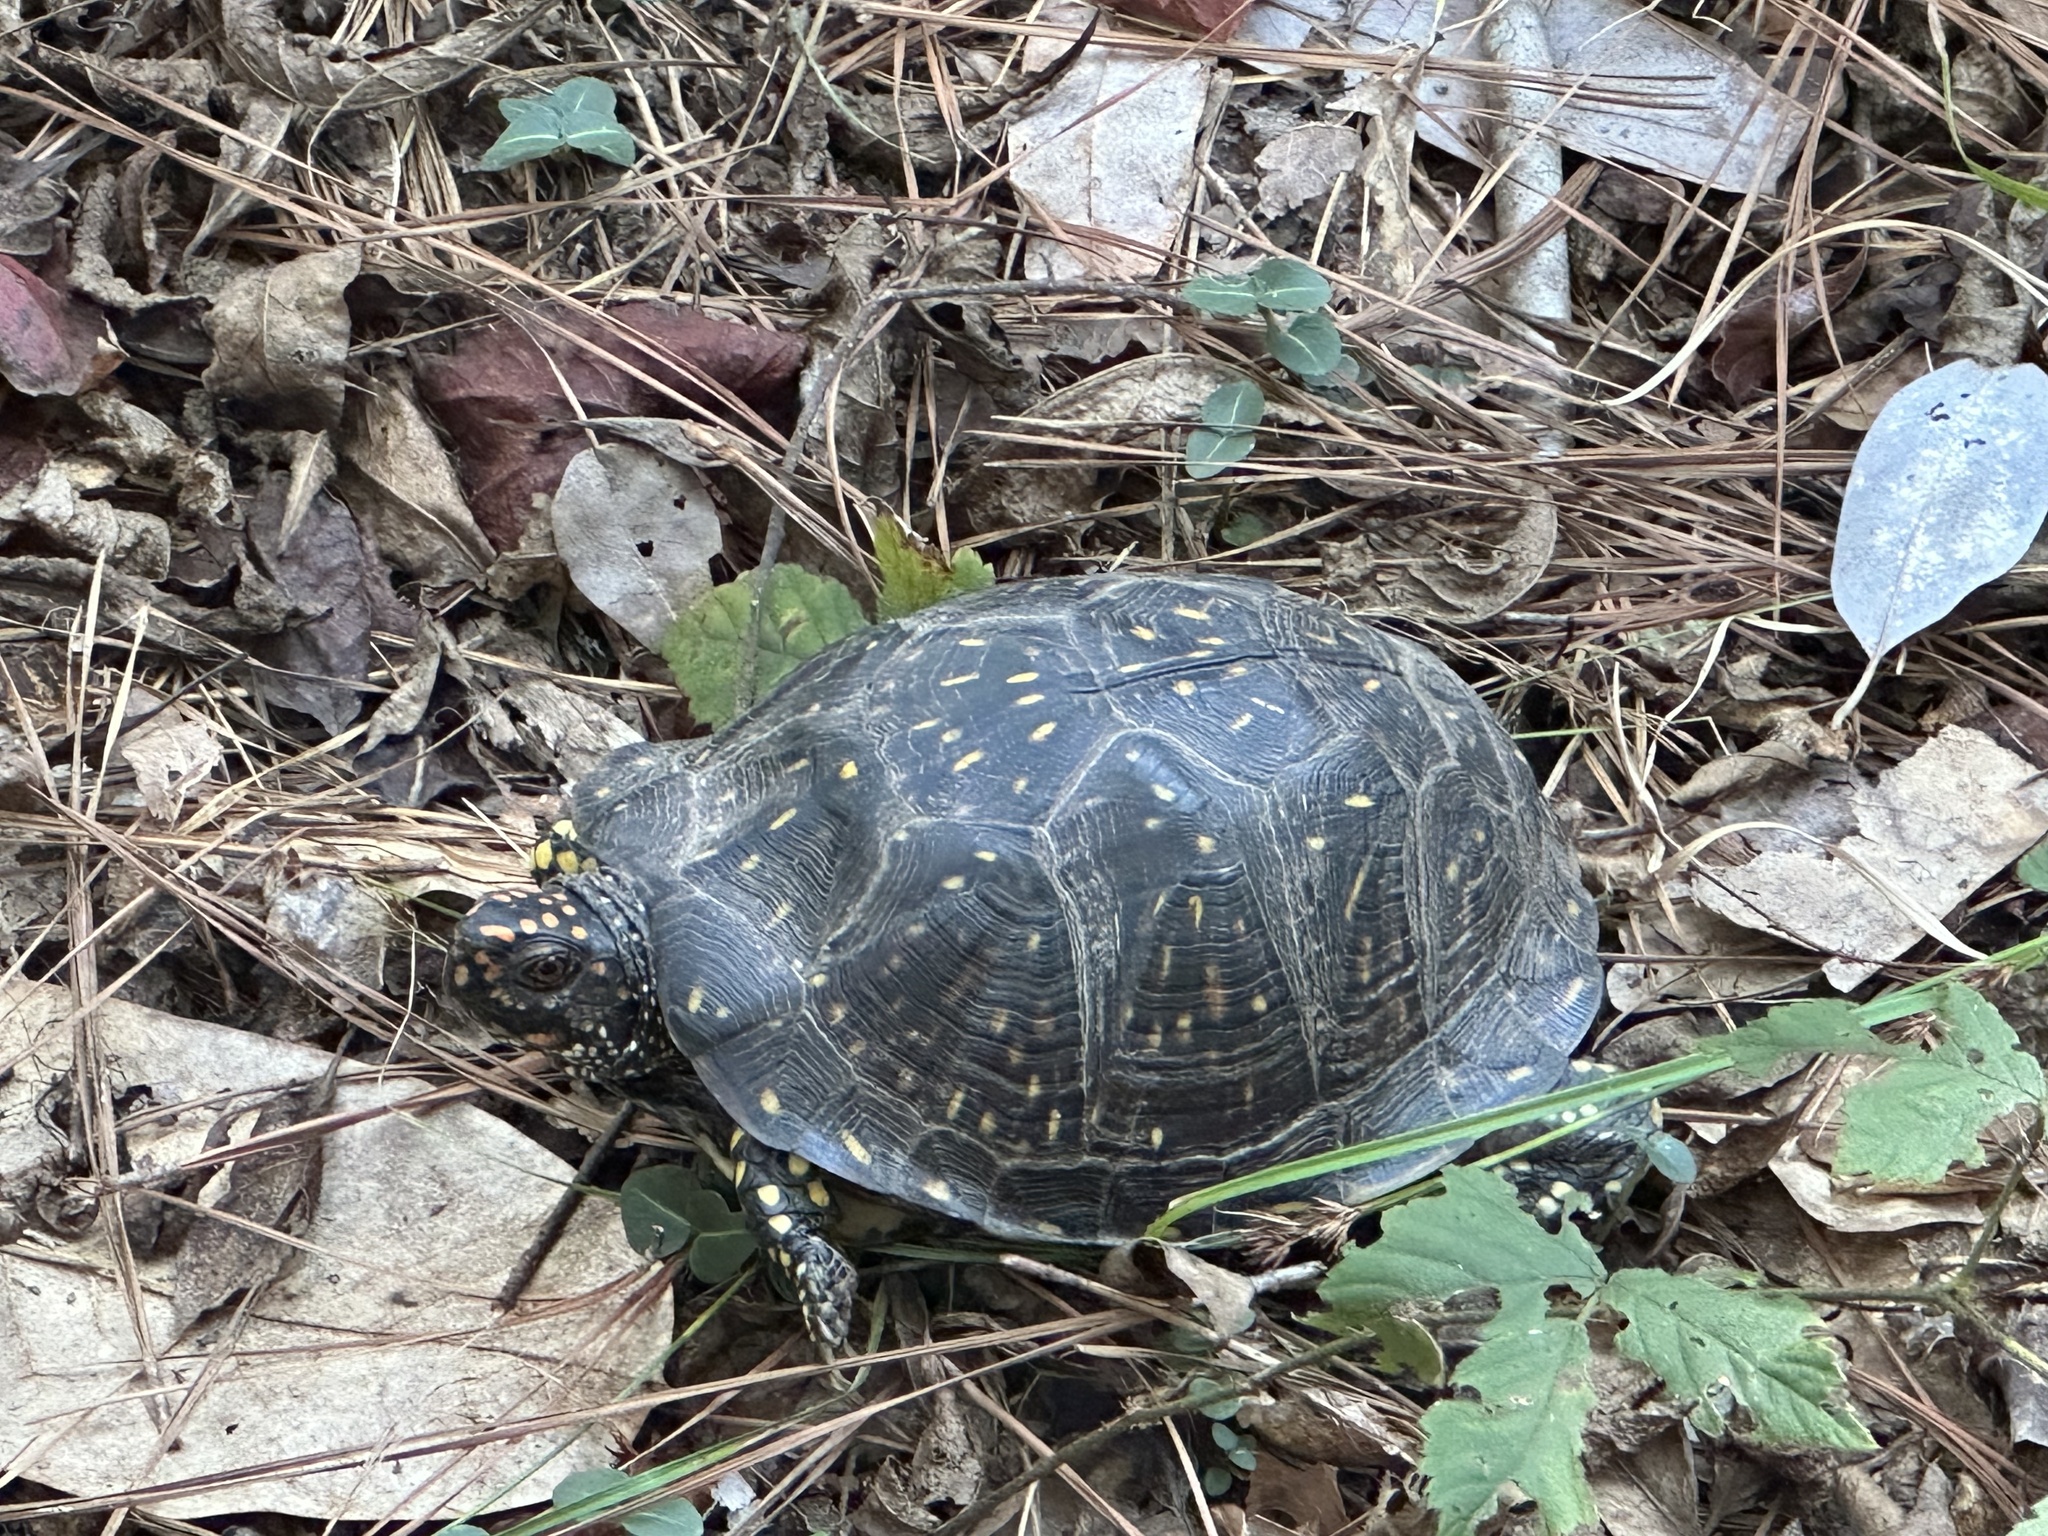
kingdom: Animalia
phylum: Chordata
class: Testudines
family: Emydidae
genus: Terrapene
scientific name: Terrapene carolina
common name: Common box turtle
